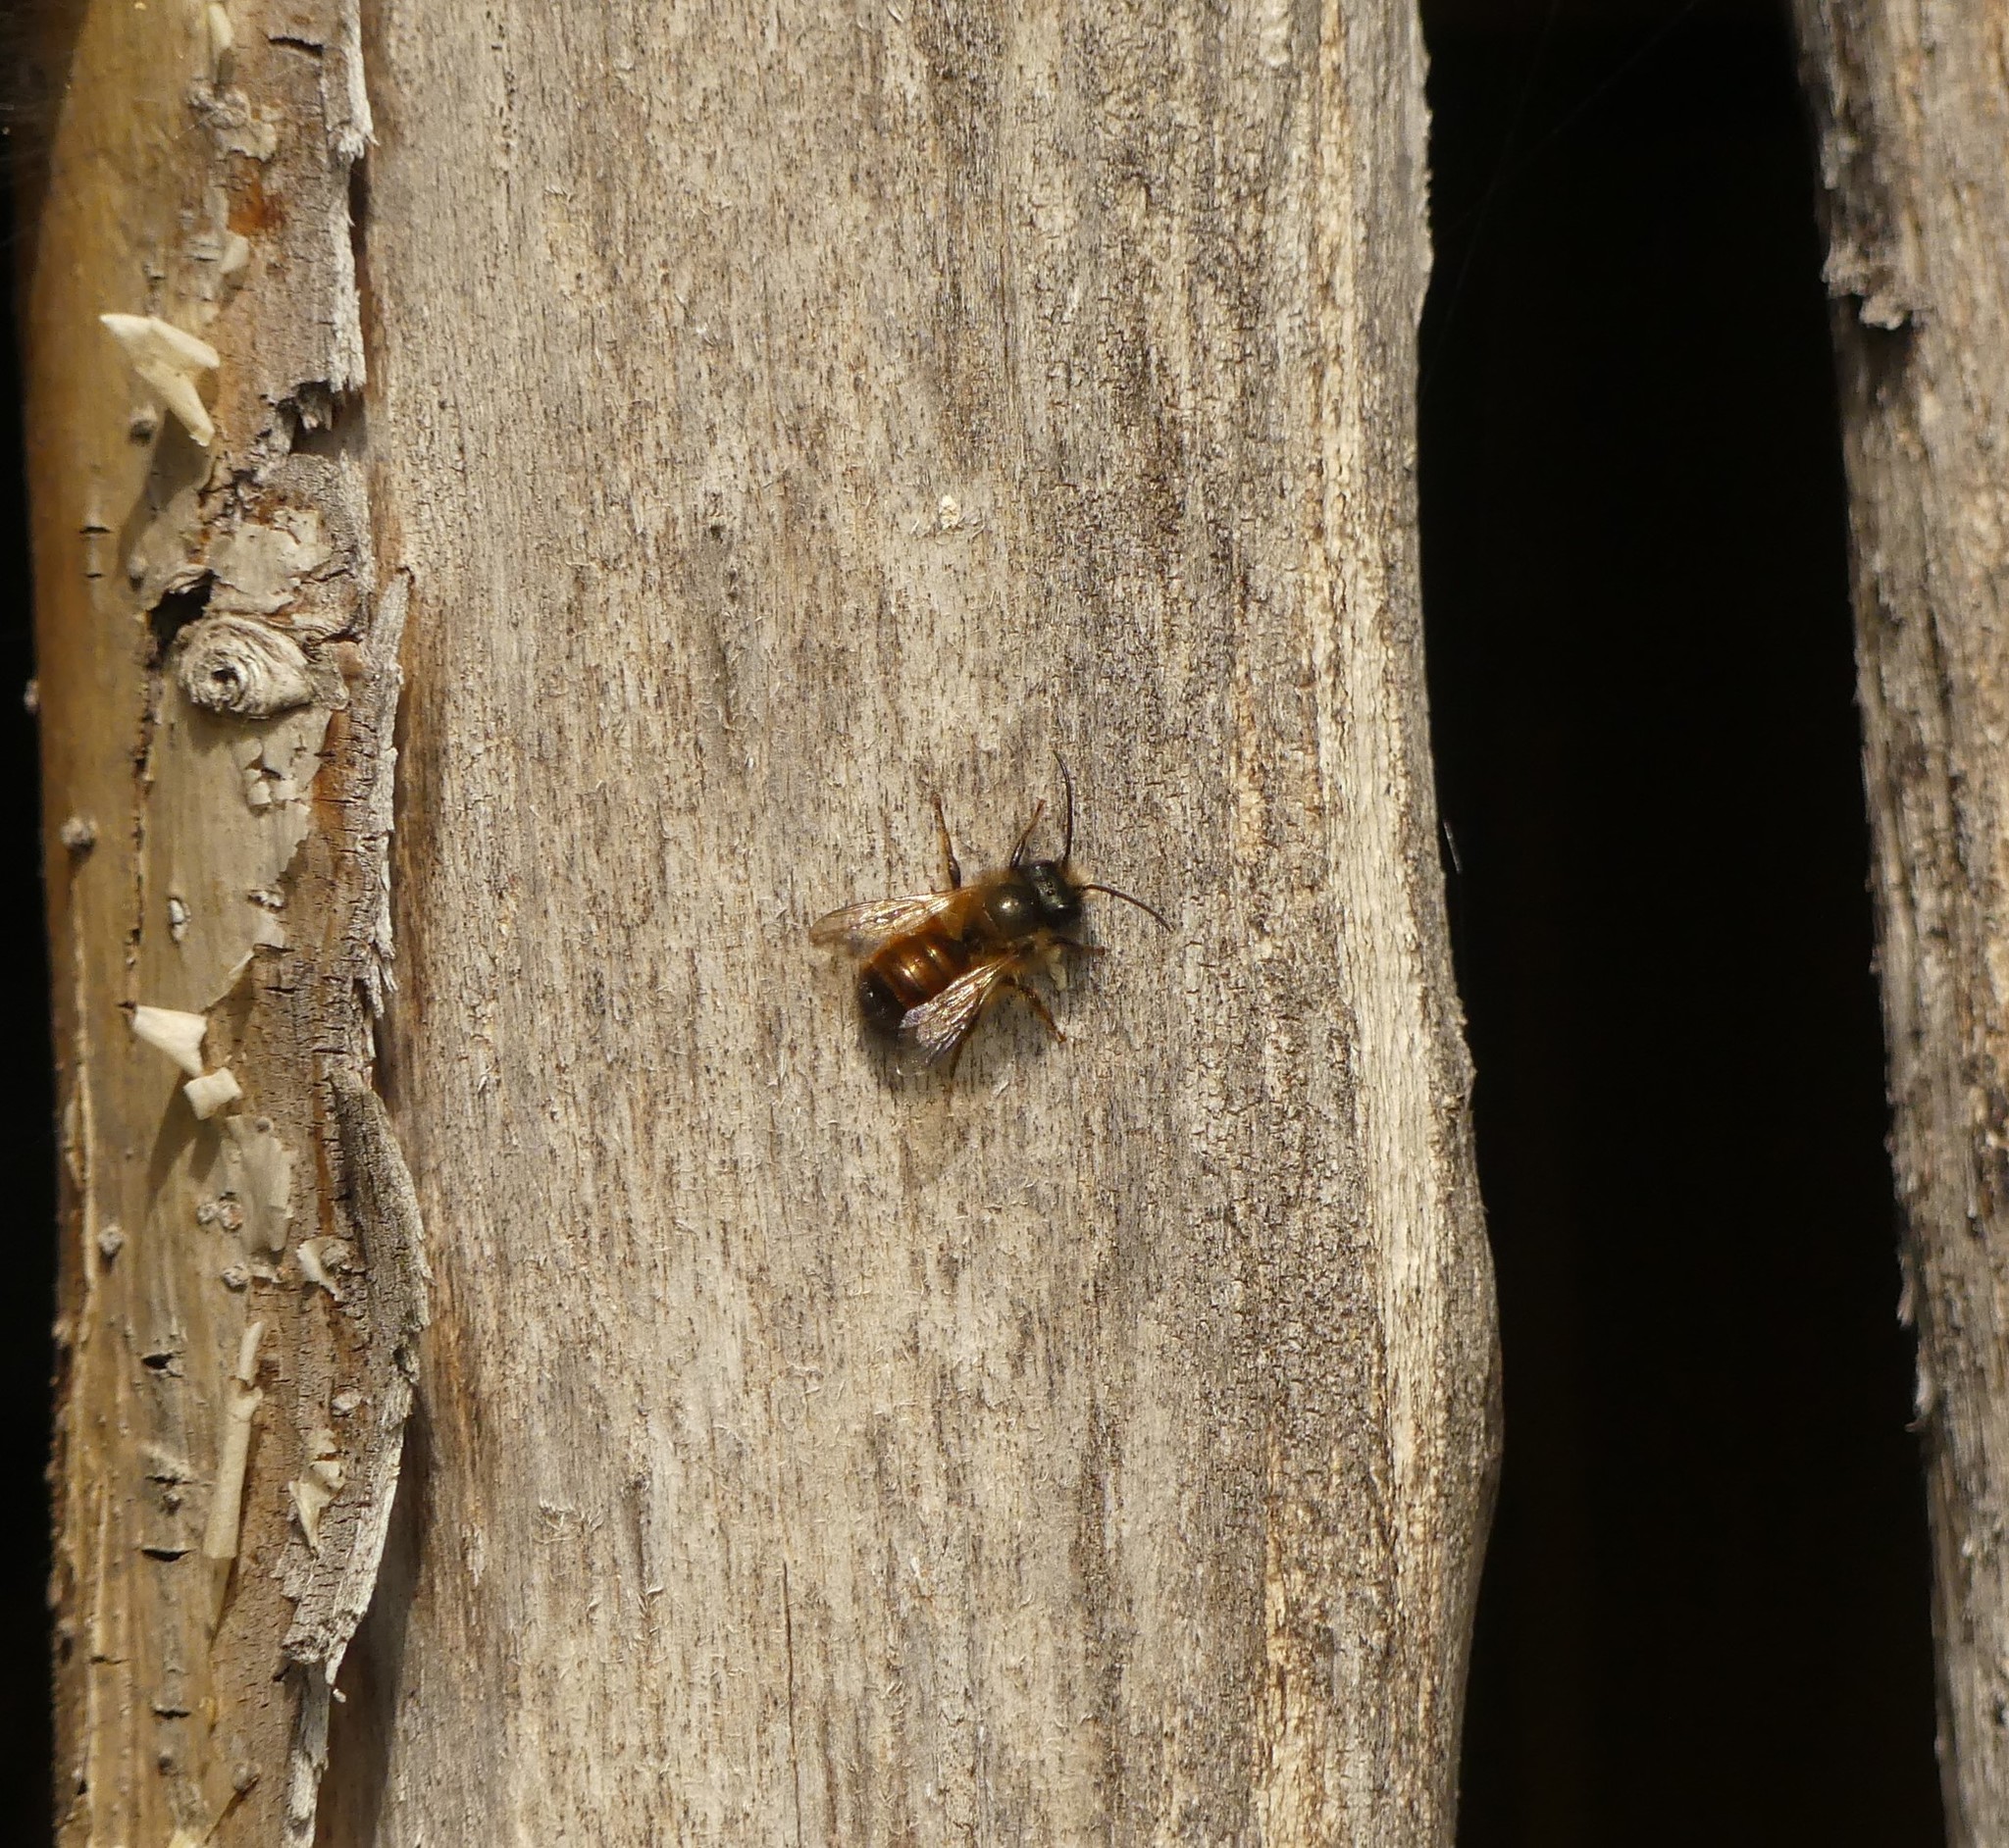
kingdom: Animalia
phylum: Arthropoda
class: Insecta
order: Hymenoptera
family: Megachilidae
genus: Osmia
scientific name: Osmia bicornis
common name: Red mason bee
